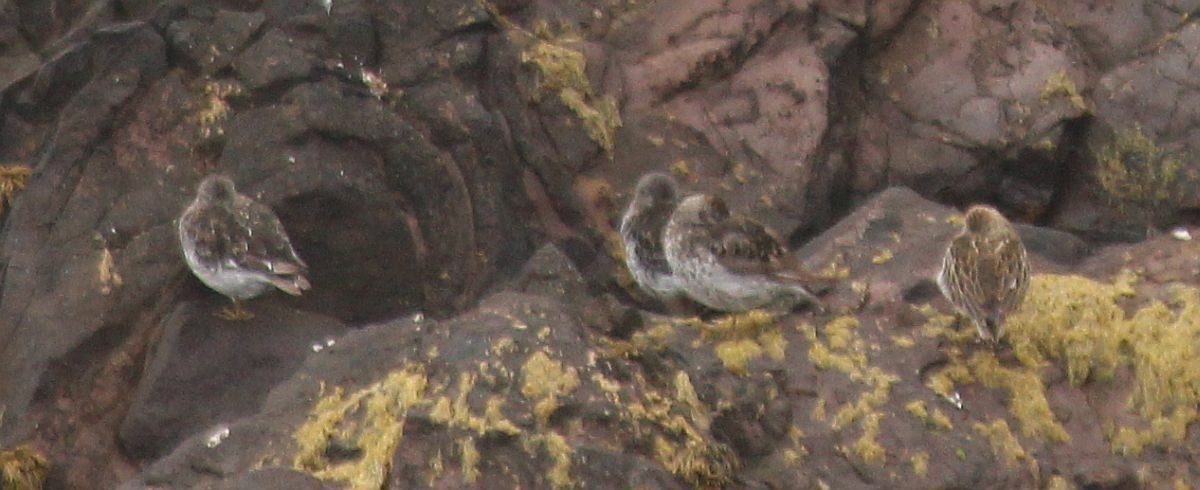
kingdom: Animalia
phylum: Chordata
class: Aves
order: Charadriiformes
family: Scolopacidae
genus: Calidris
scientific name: Calidris maritima
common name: Purple sandpiper
